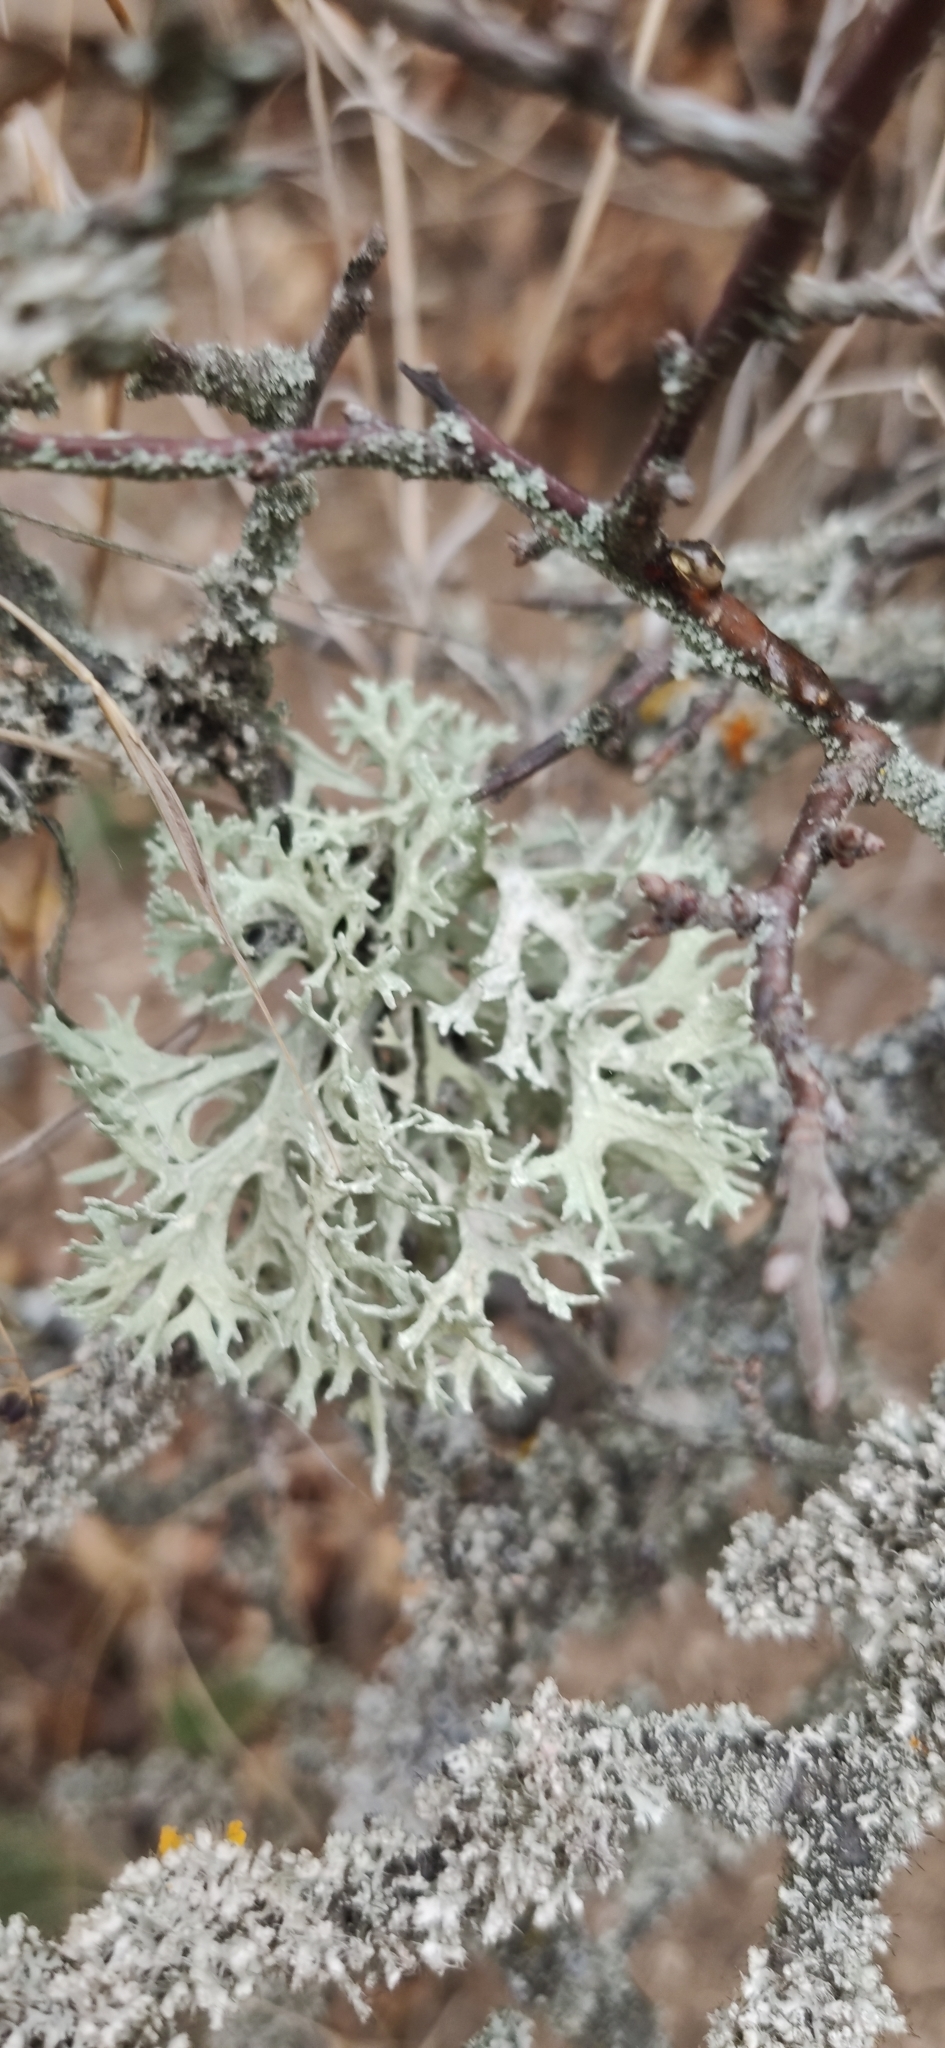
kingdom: Fungi
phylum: Ascomycota
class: Lecanoromycetes
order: Lecanorales
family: Parmeliaceae
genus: Evernia
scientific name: Evernia prunastri
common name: Oak moss
